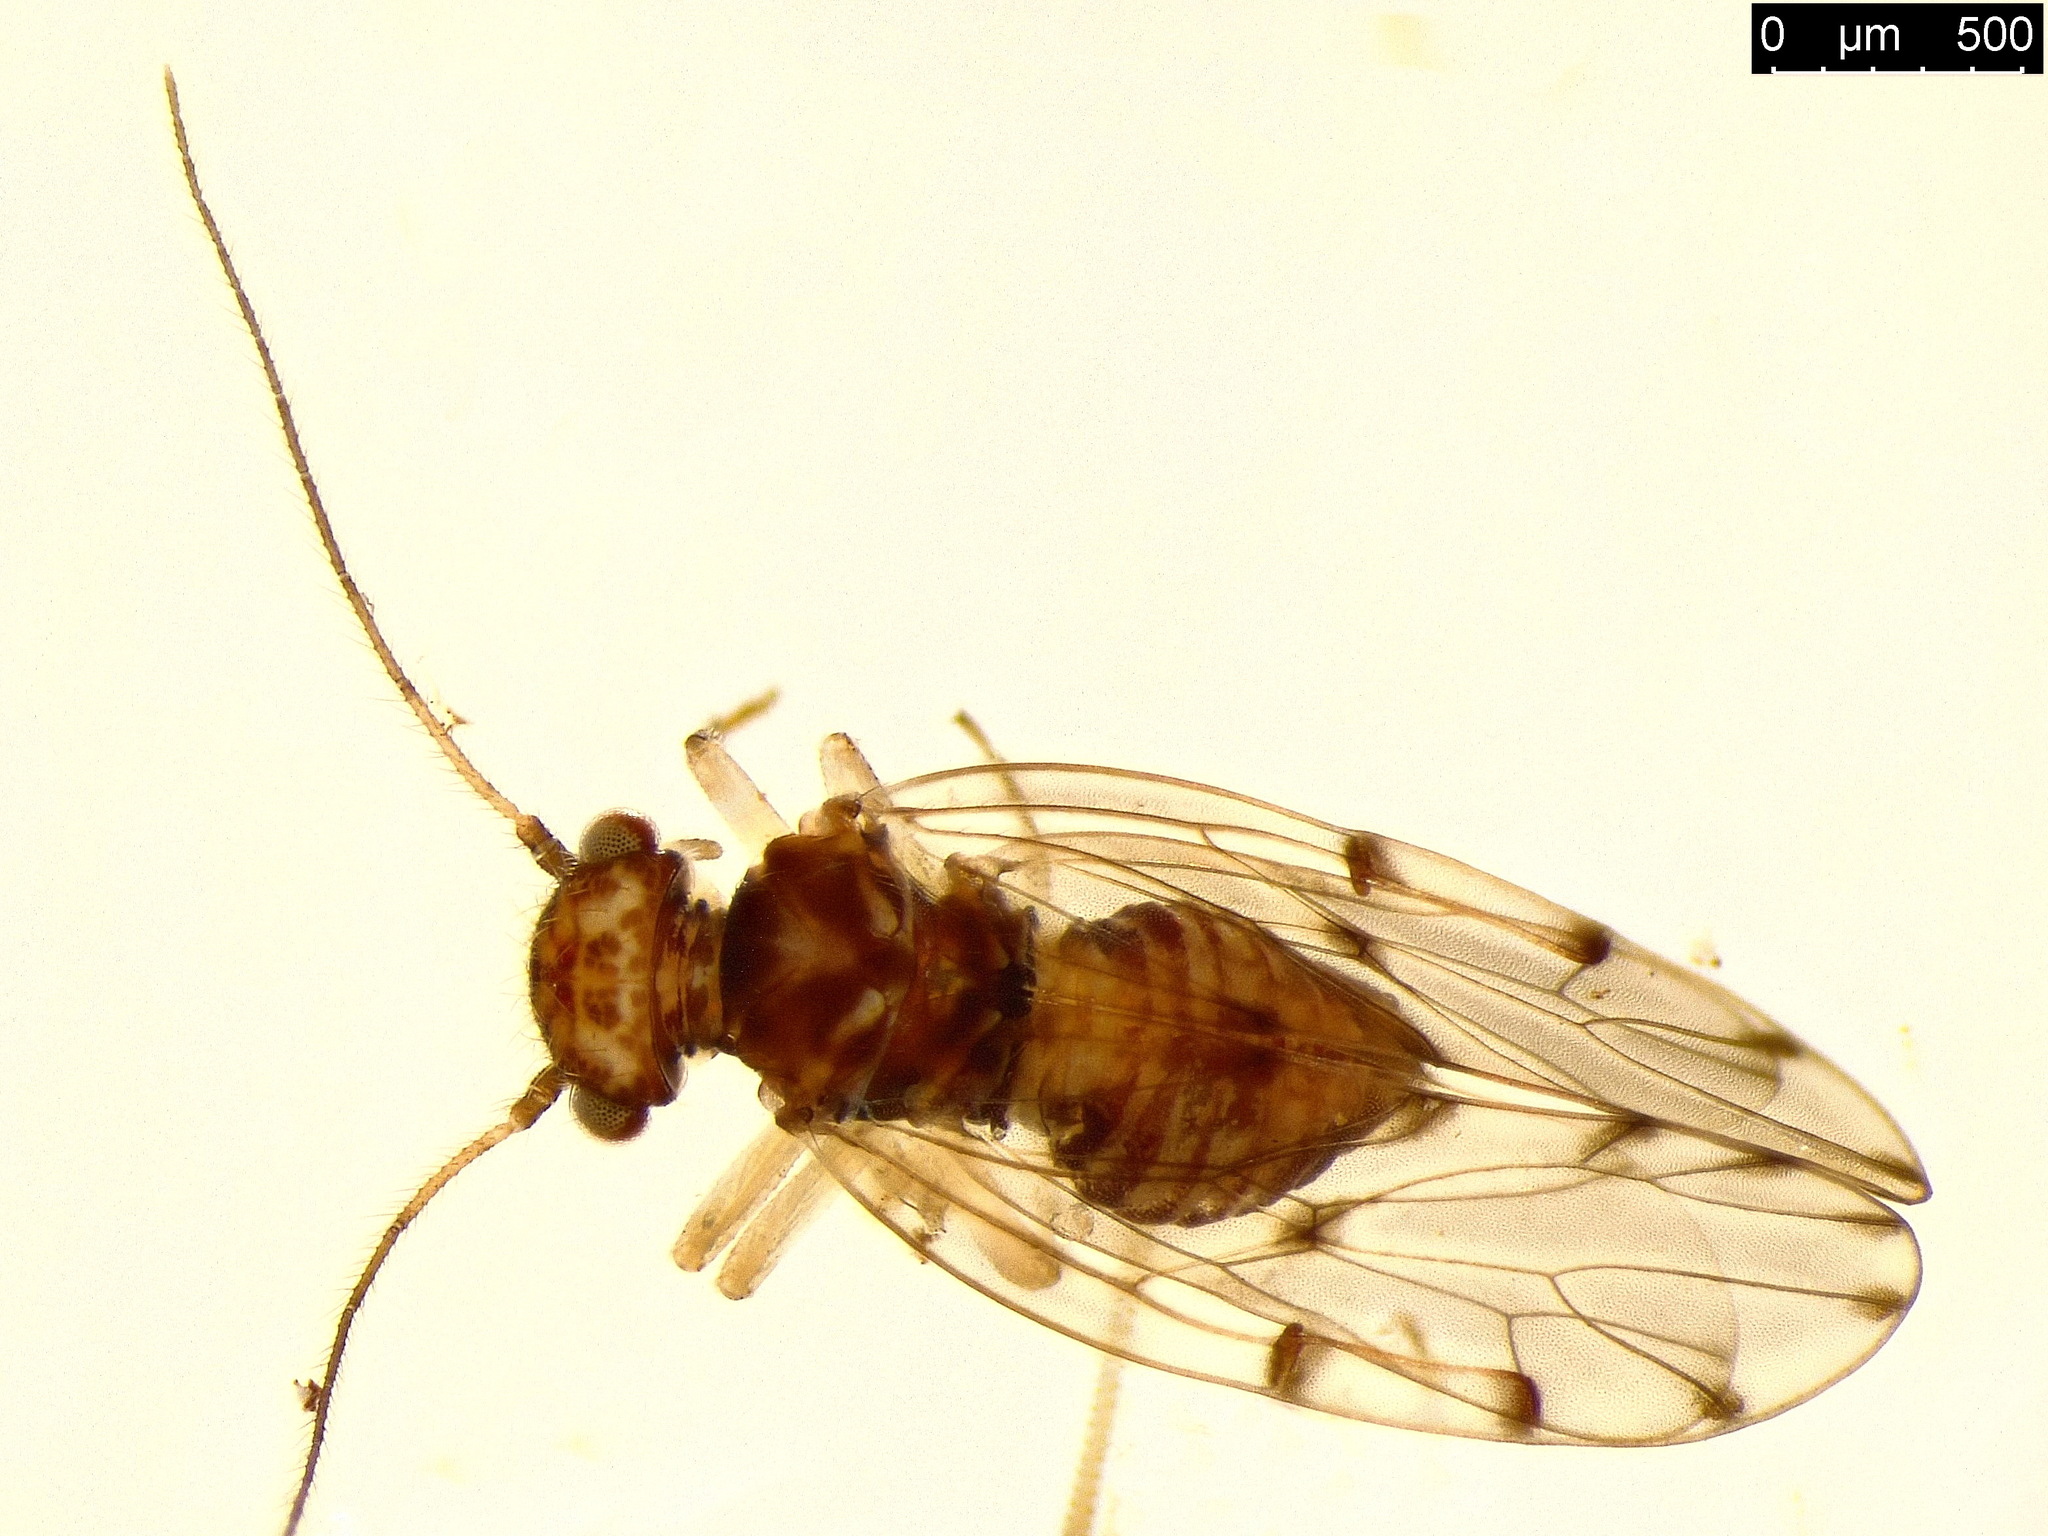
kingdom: Animalia
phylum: Arthropoda
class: Insecta
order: Psocodea
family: Ectopsocidae
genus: Ectopsocus
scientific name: Ectopsocus petersi
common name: Medium-sized bark louse
